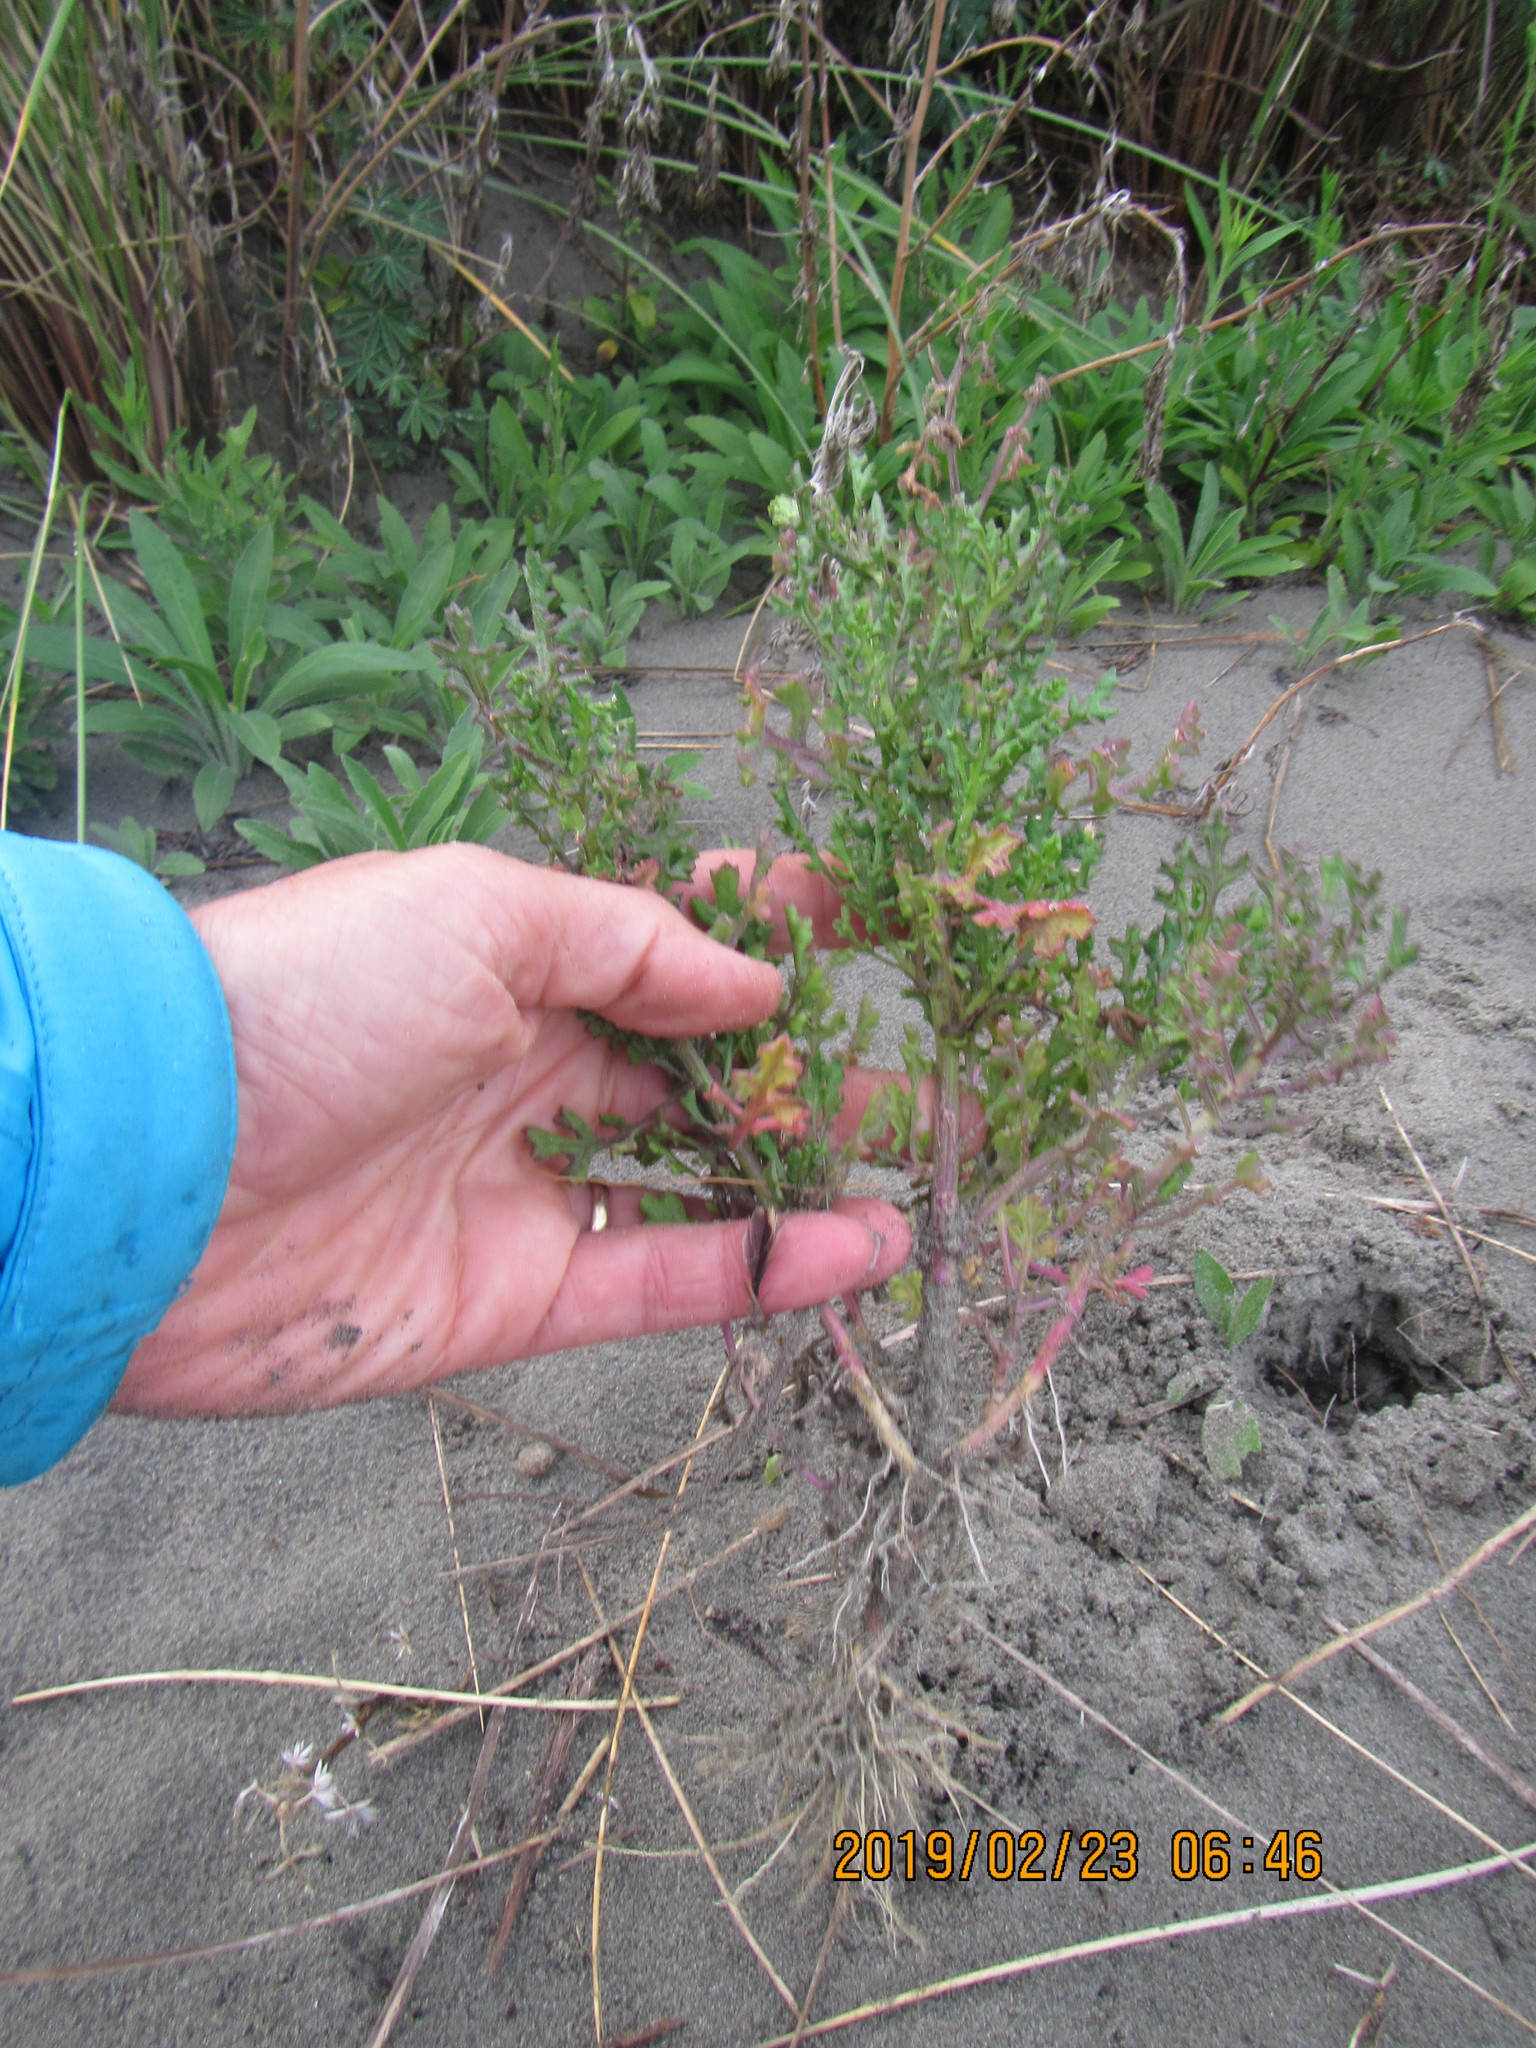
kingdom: Plantae
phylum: Tracheophyta
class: Magnoliopsida
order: Asterales
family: Asteraceae
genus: Senecio
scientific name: Senecio elegans
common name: Purple groundsel
